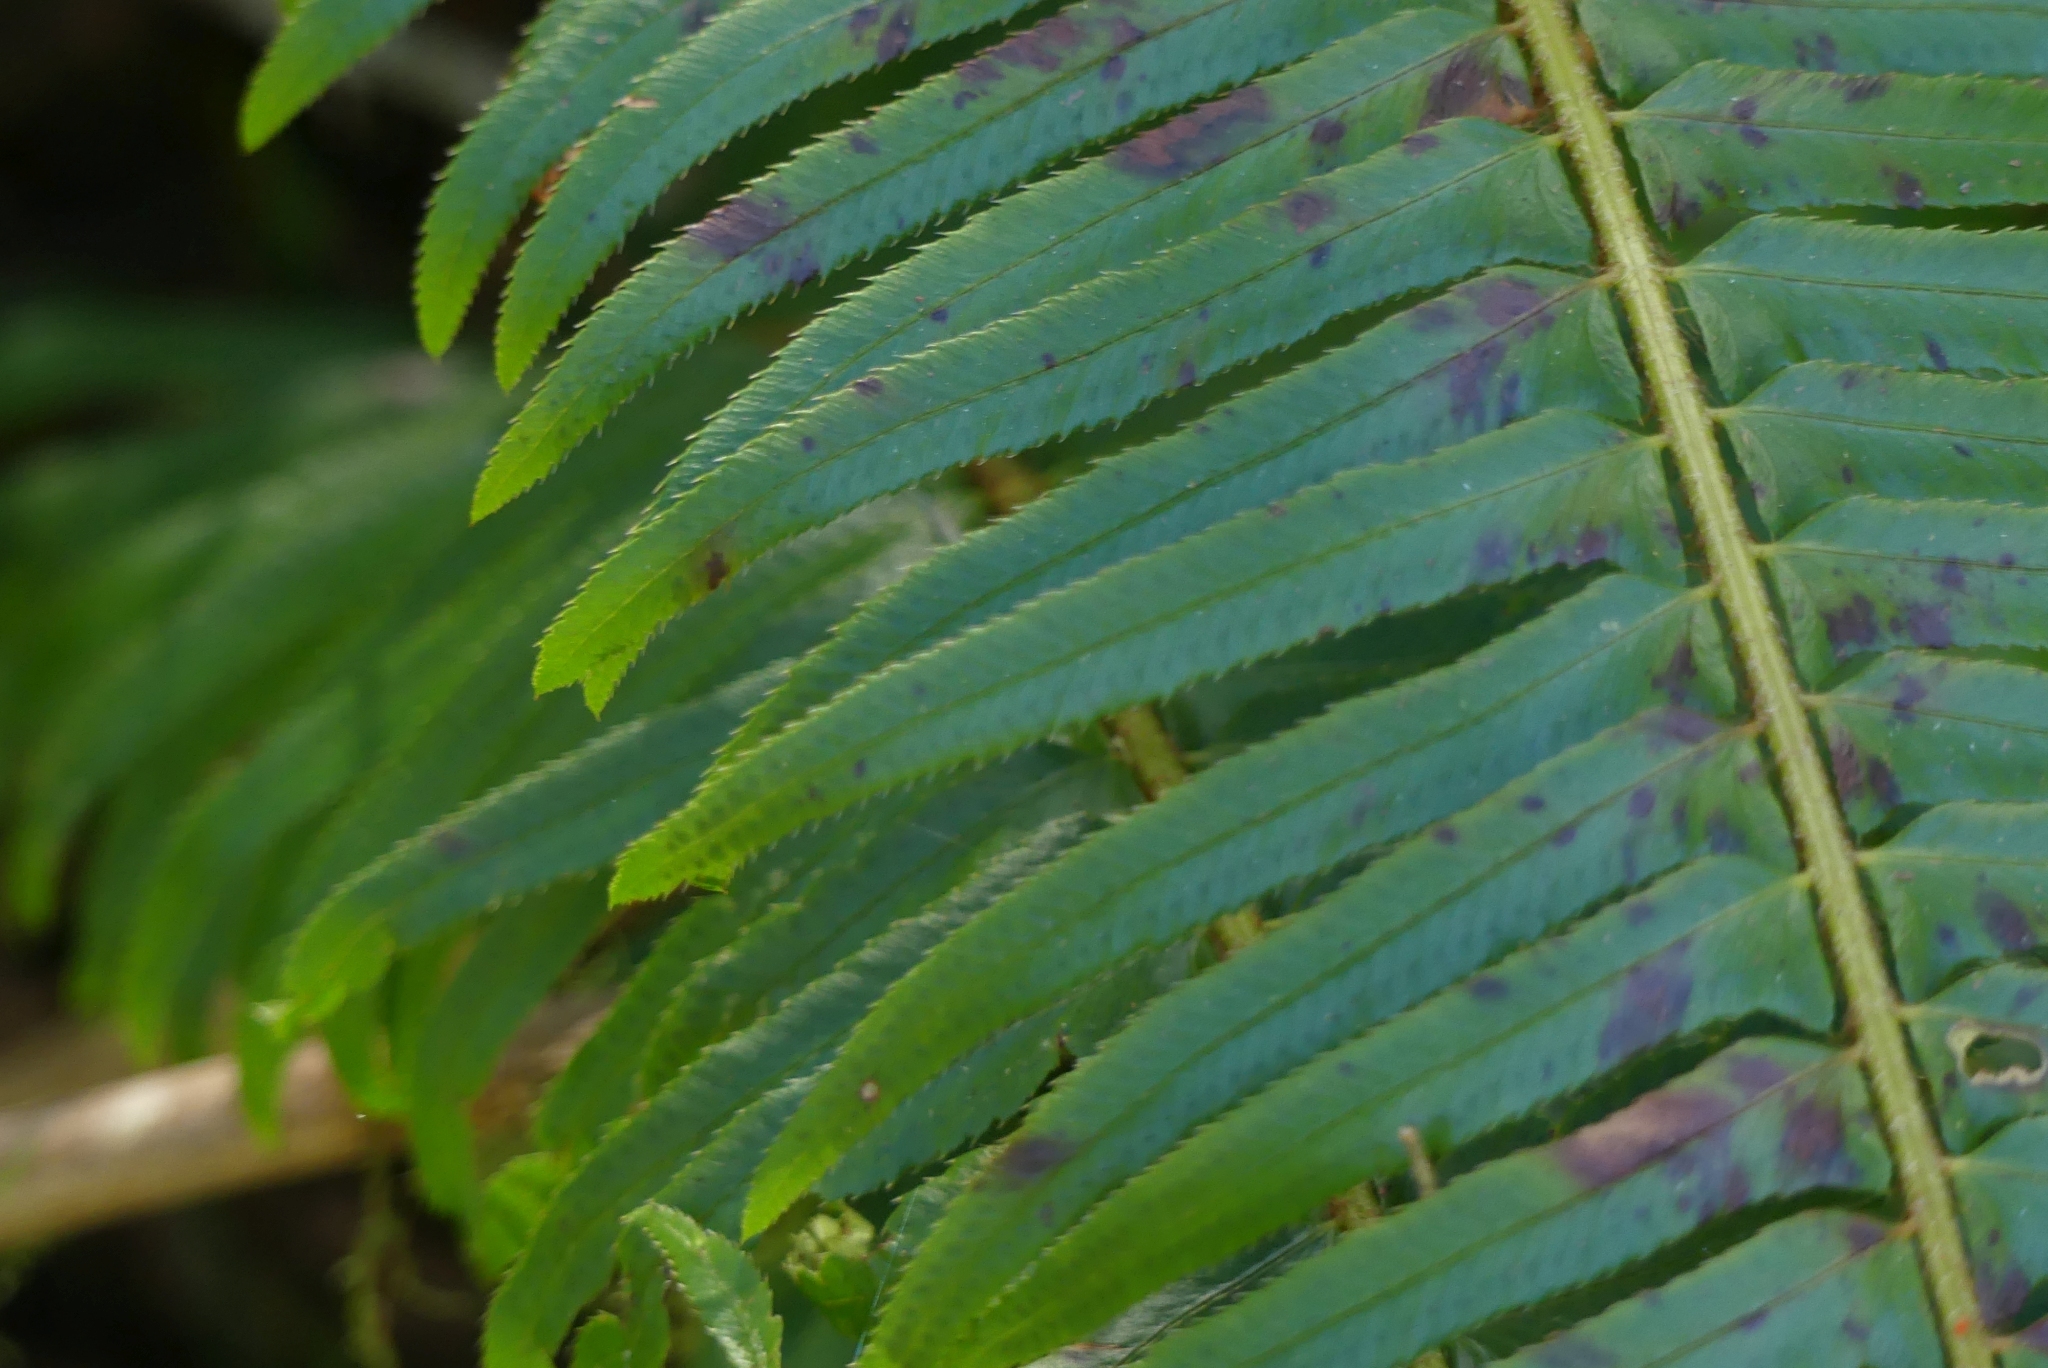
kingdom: Plantae
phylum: Tracheophyta
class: Polypodiopsida
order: Polypodiales
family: Dryopteridaceae
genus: Polystichum
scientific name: Polystichum munitum
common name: Western sword-fern
